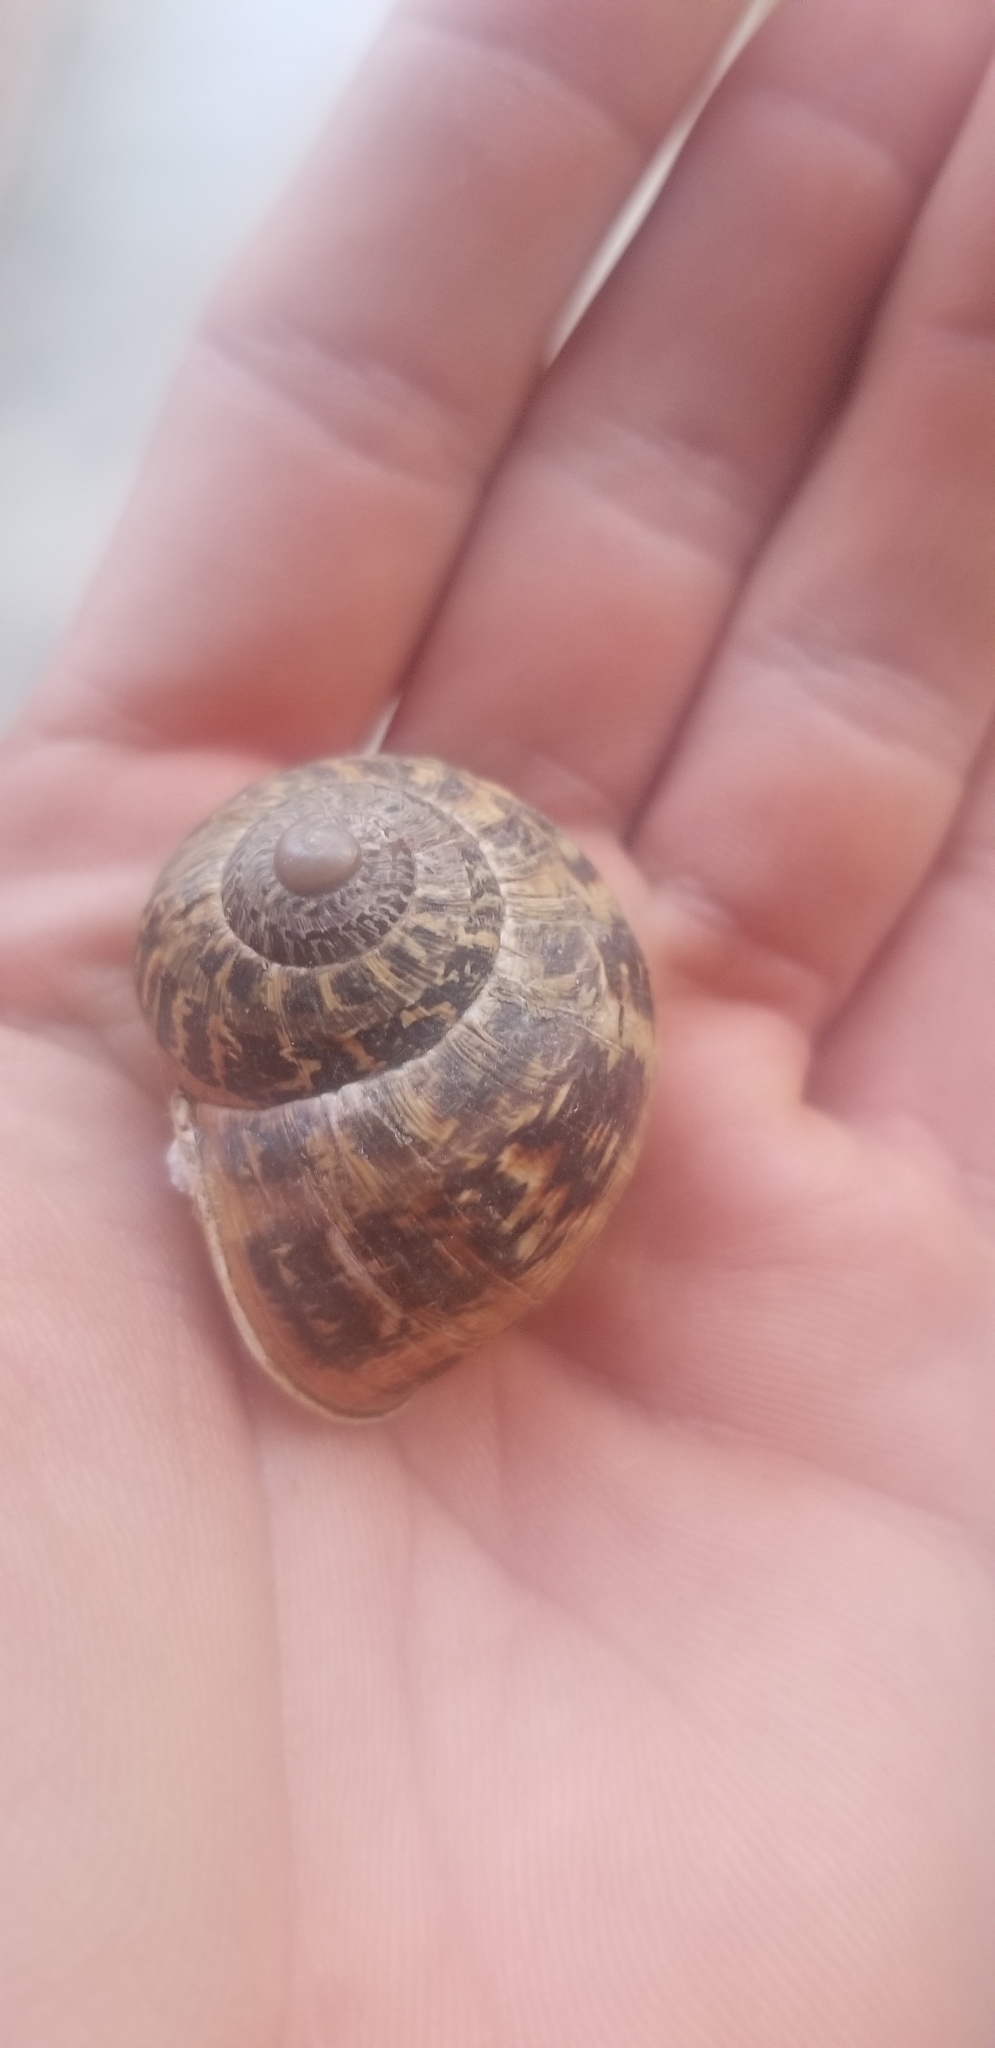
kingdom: Animalia
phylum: Mollusca
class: Gastropoda
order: Stylommatophora
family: Helicidae
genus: Cornu
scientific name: Cornu aspersum
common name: Brown garden snail
